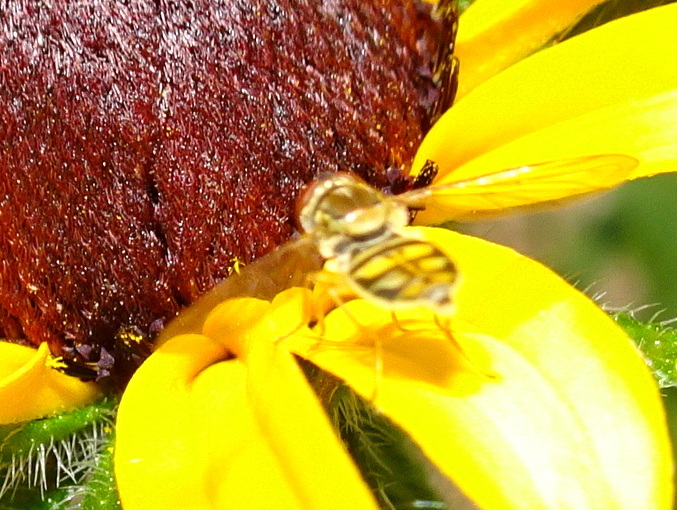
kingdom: Animalia
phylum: Arthropoda
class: Insecta
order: Diptera
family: Syrphidae
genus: Toxomerus
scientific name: Toxomerus marginatus
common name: Syrphid fly
